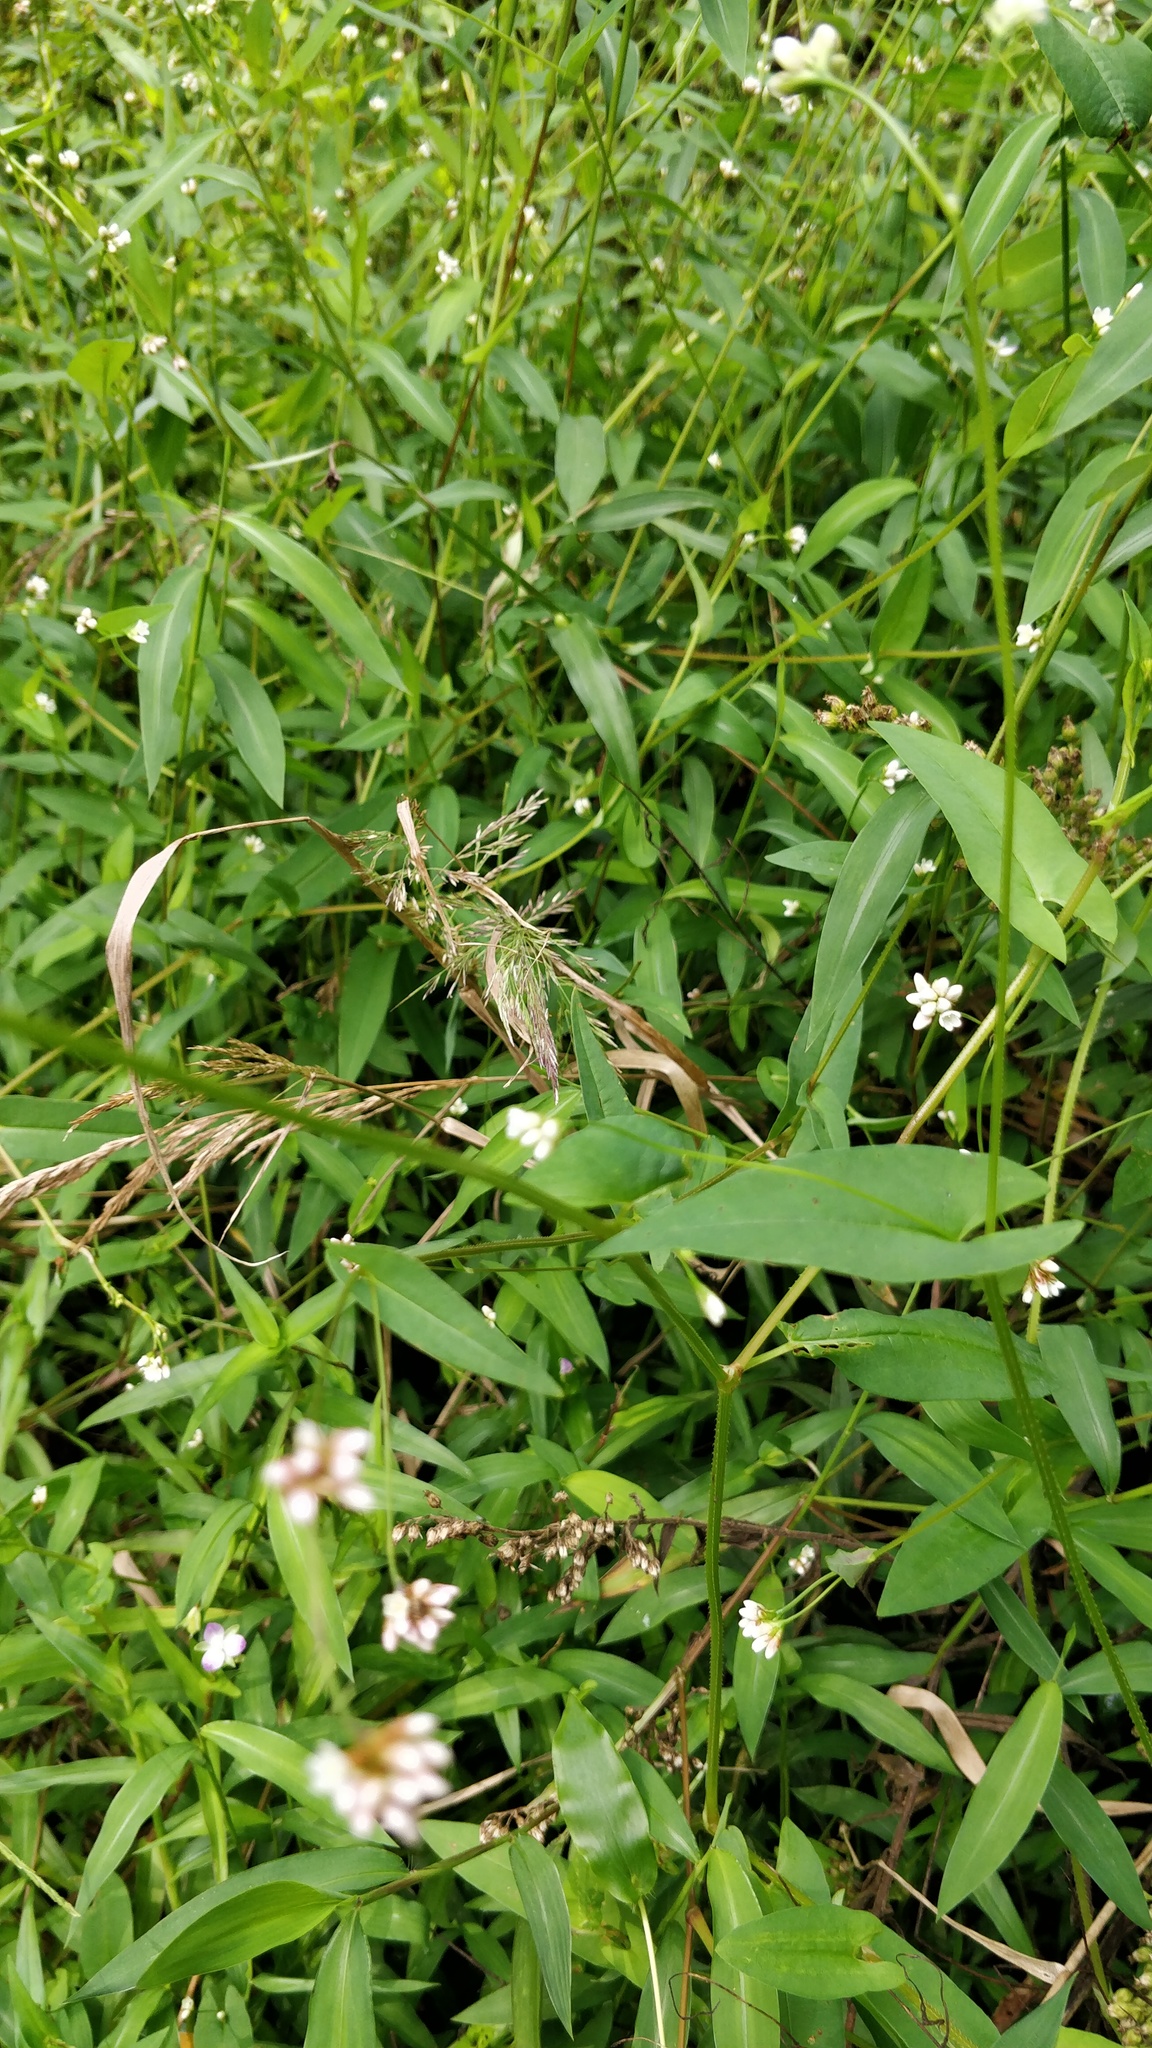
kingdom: Plantae
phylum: Tracheophyta
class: Magnoliopsida
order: Caryophyllales
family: Polygonaceae
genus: Persicaria
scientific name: Persicaria sagittata
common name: American tearthumb
